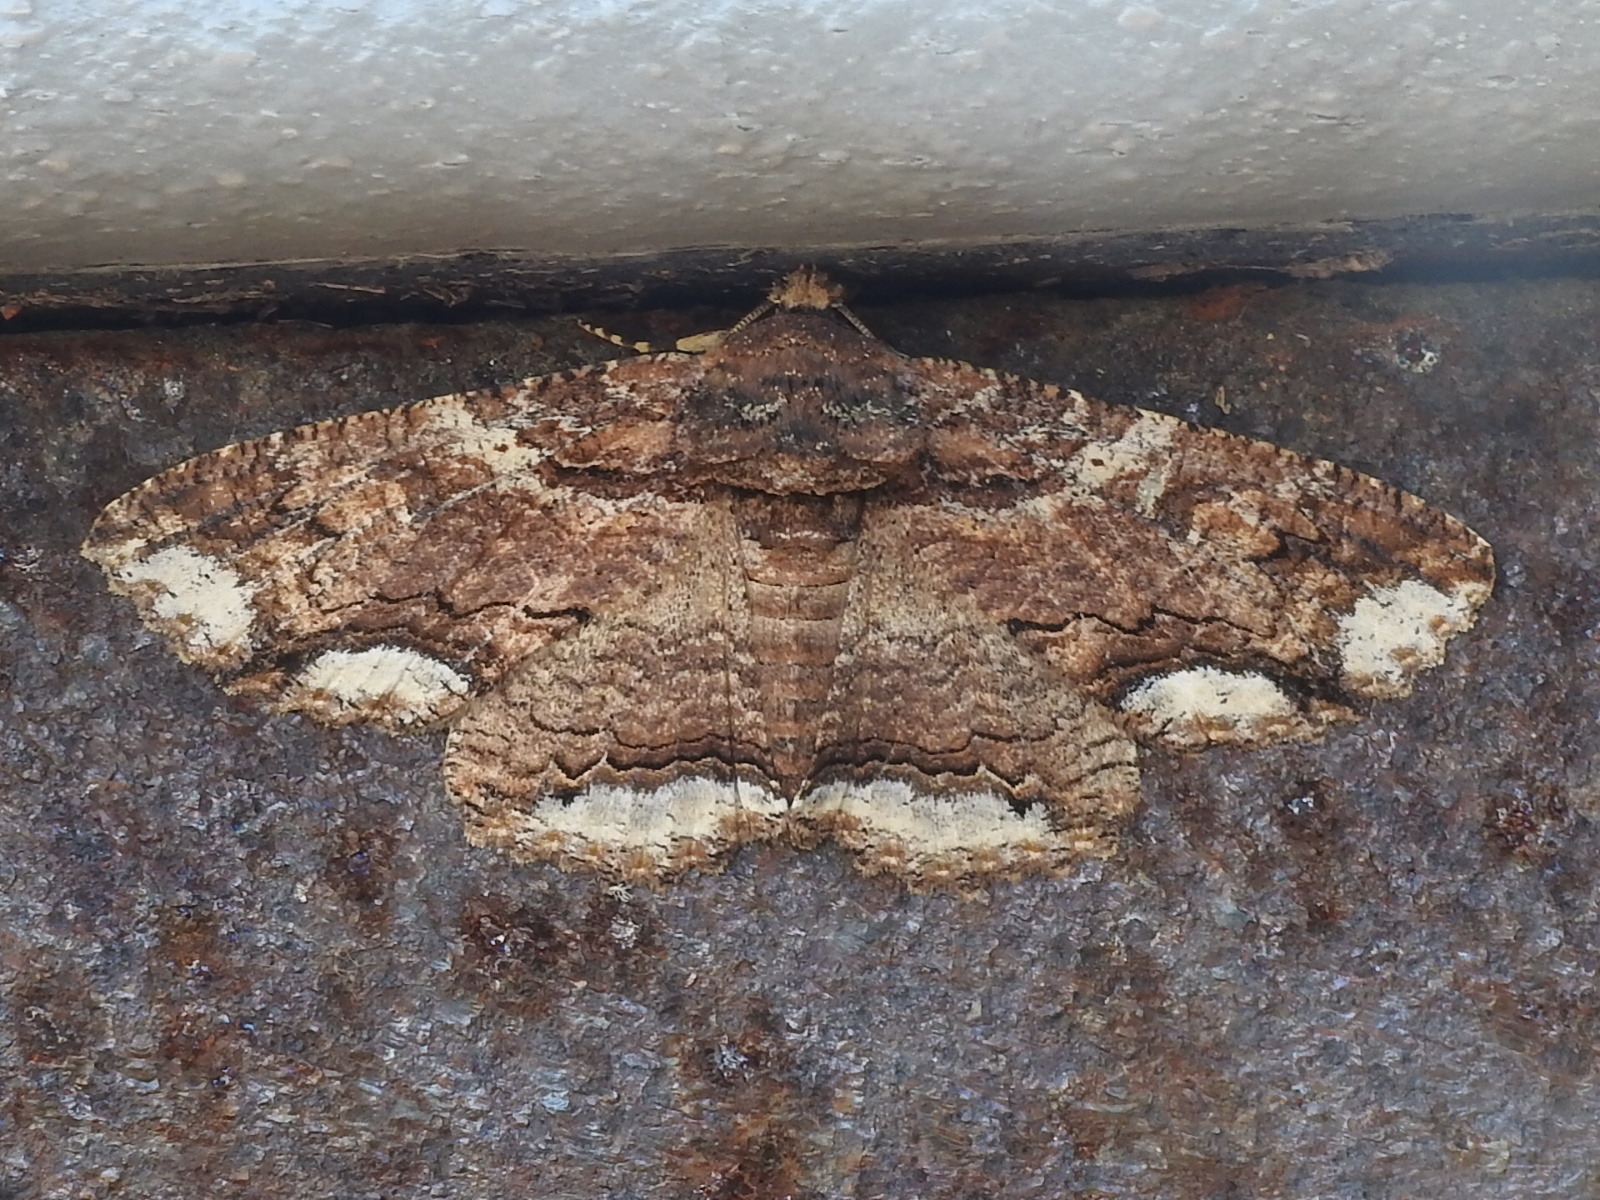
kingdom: Animalia
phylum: Arthropoda
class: Insecta
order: Lepidoptera
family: Erebidae
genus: Zale
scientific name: Zale lunata
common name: Lunate zale moth
